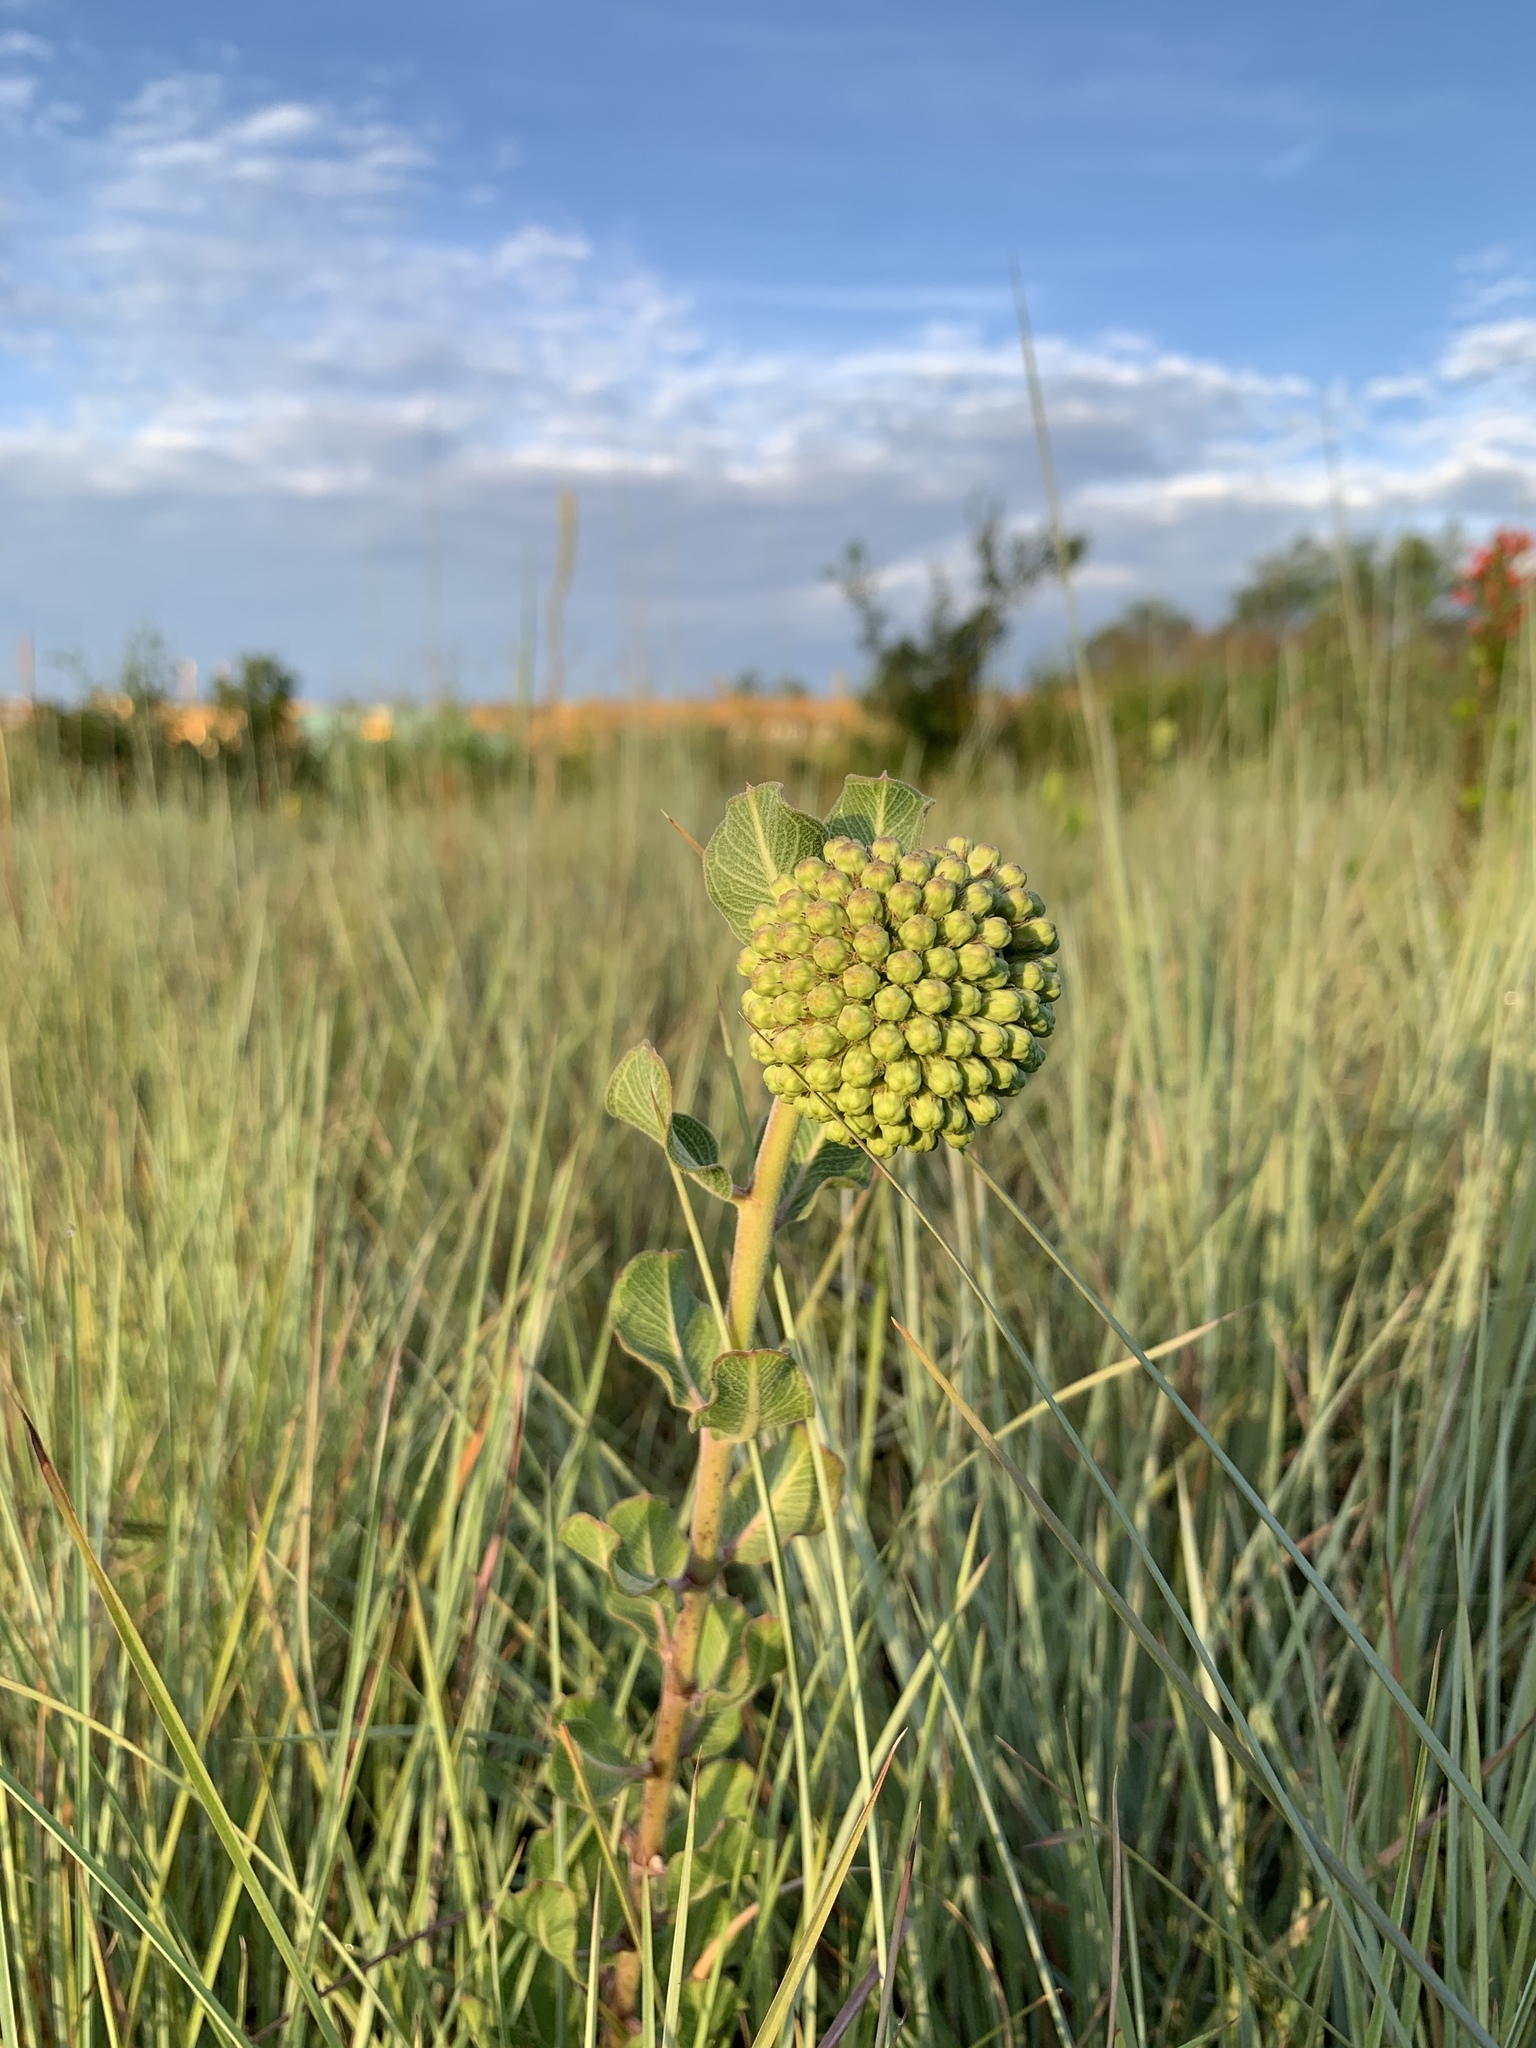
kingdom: Plantae
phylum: Tracheophyta
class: Magnoliopsida
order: Gentianales
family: Apocynaceae
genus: Asclepias
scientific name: Asclepias viridiflora
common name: Green comet milkweed
